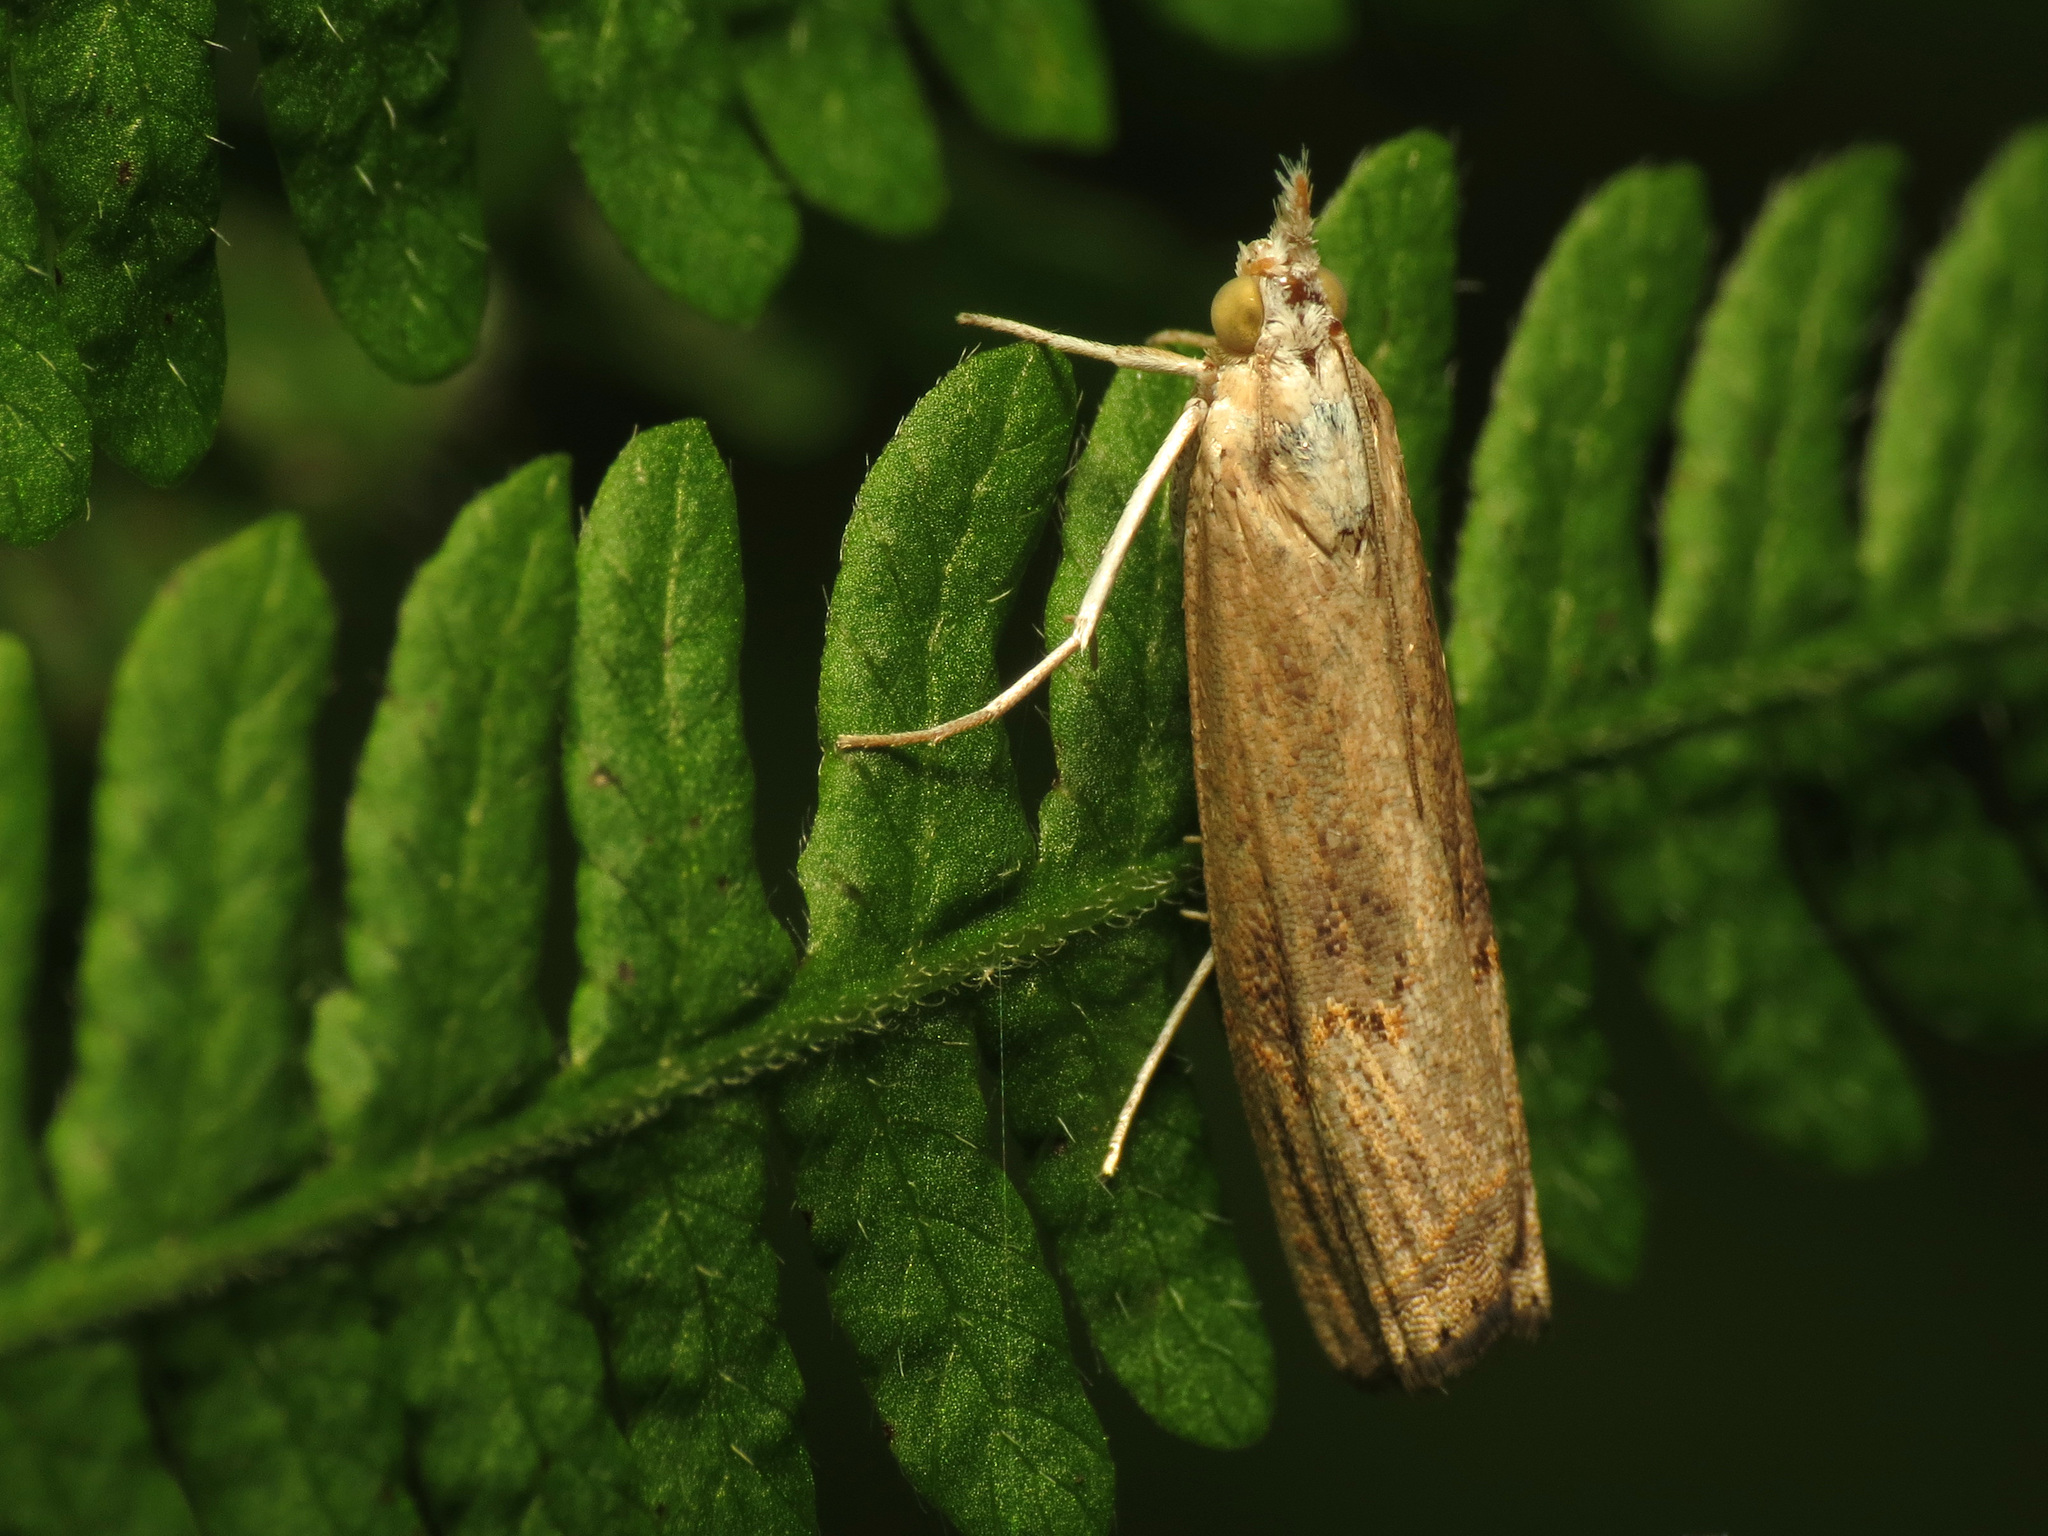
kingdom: Animalia
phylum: Arthropoda
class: Insecta
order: Lepidoptera
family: Crambidae
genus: Parapediasia
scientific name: Parapediasia teterellus
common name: Bluegrass webworm moth
